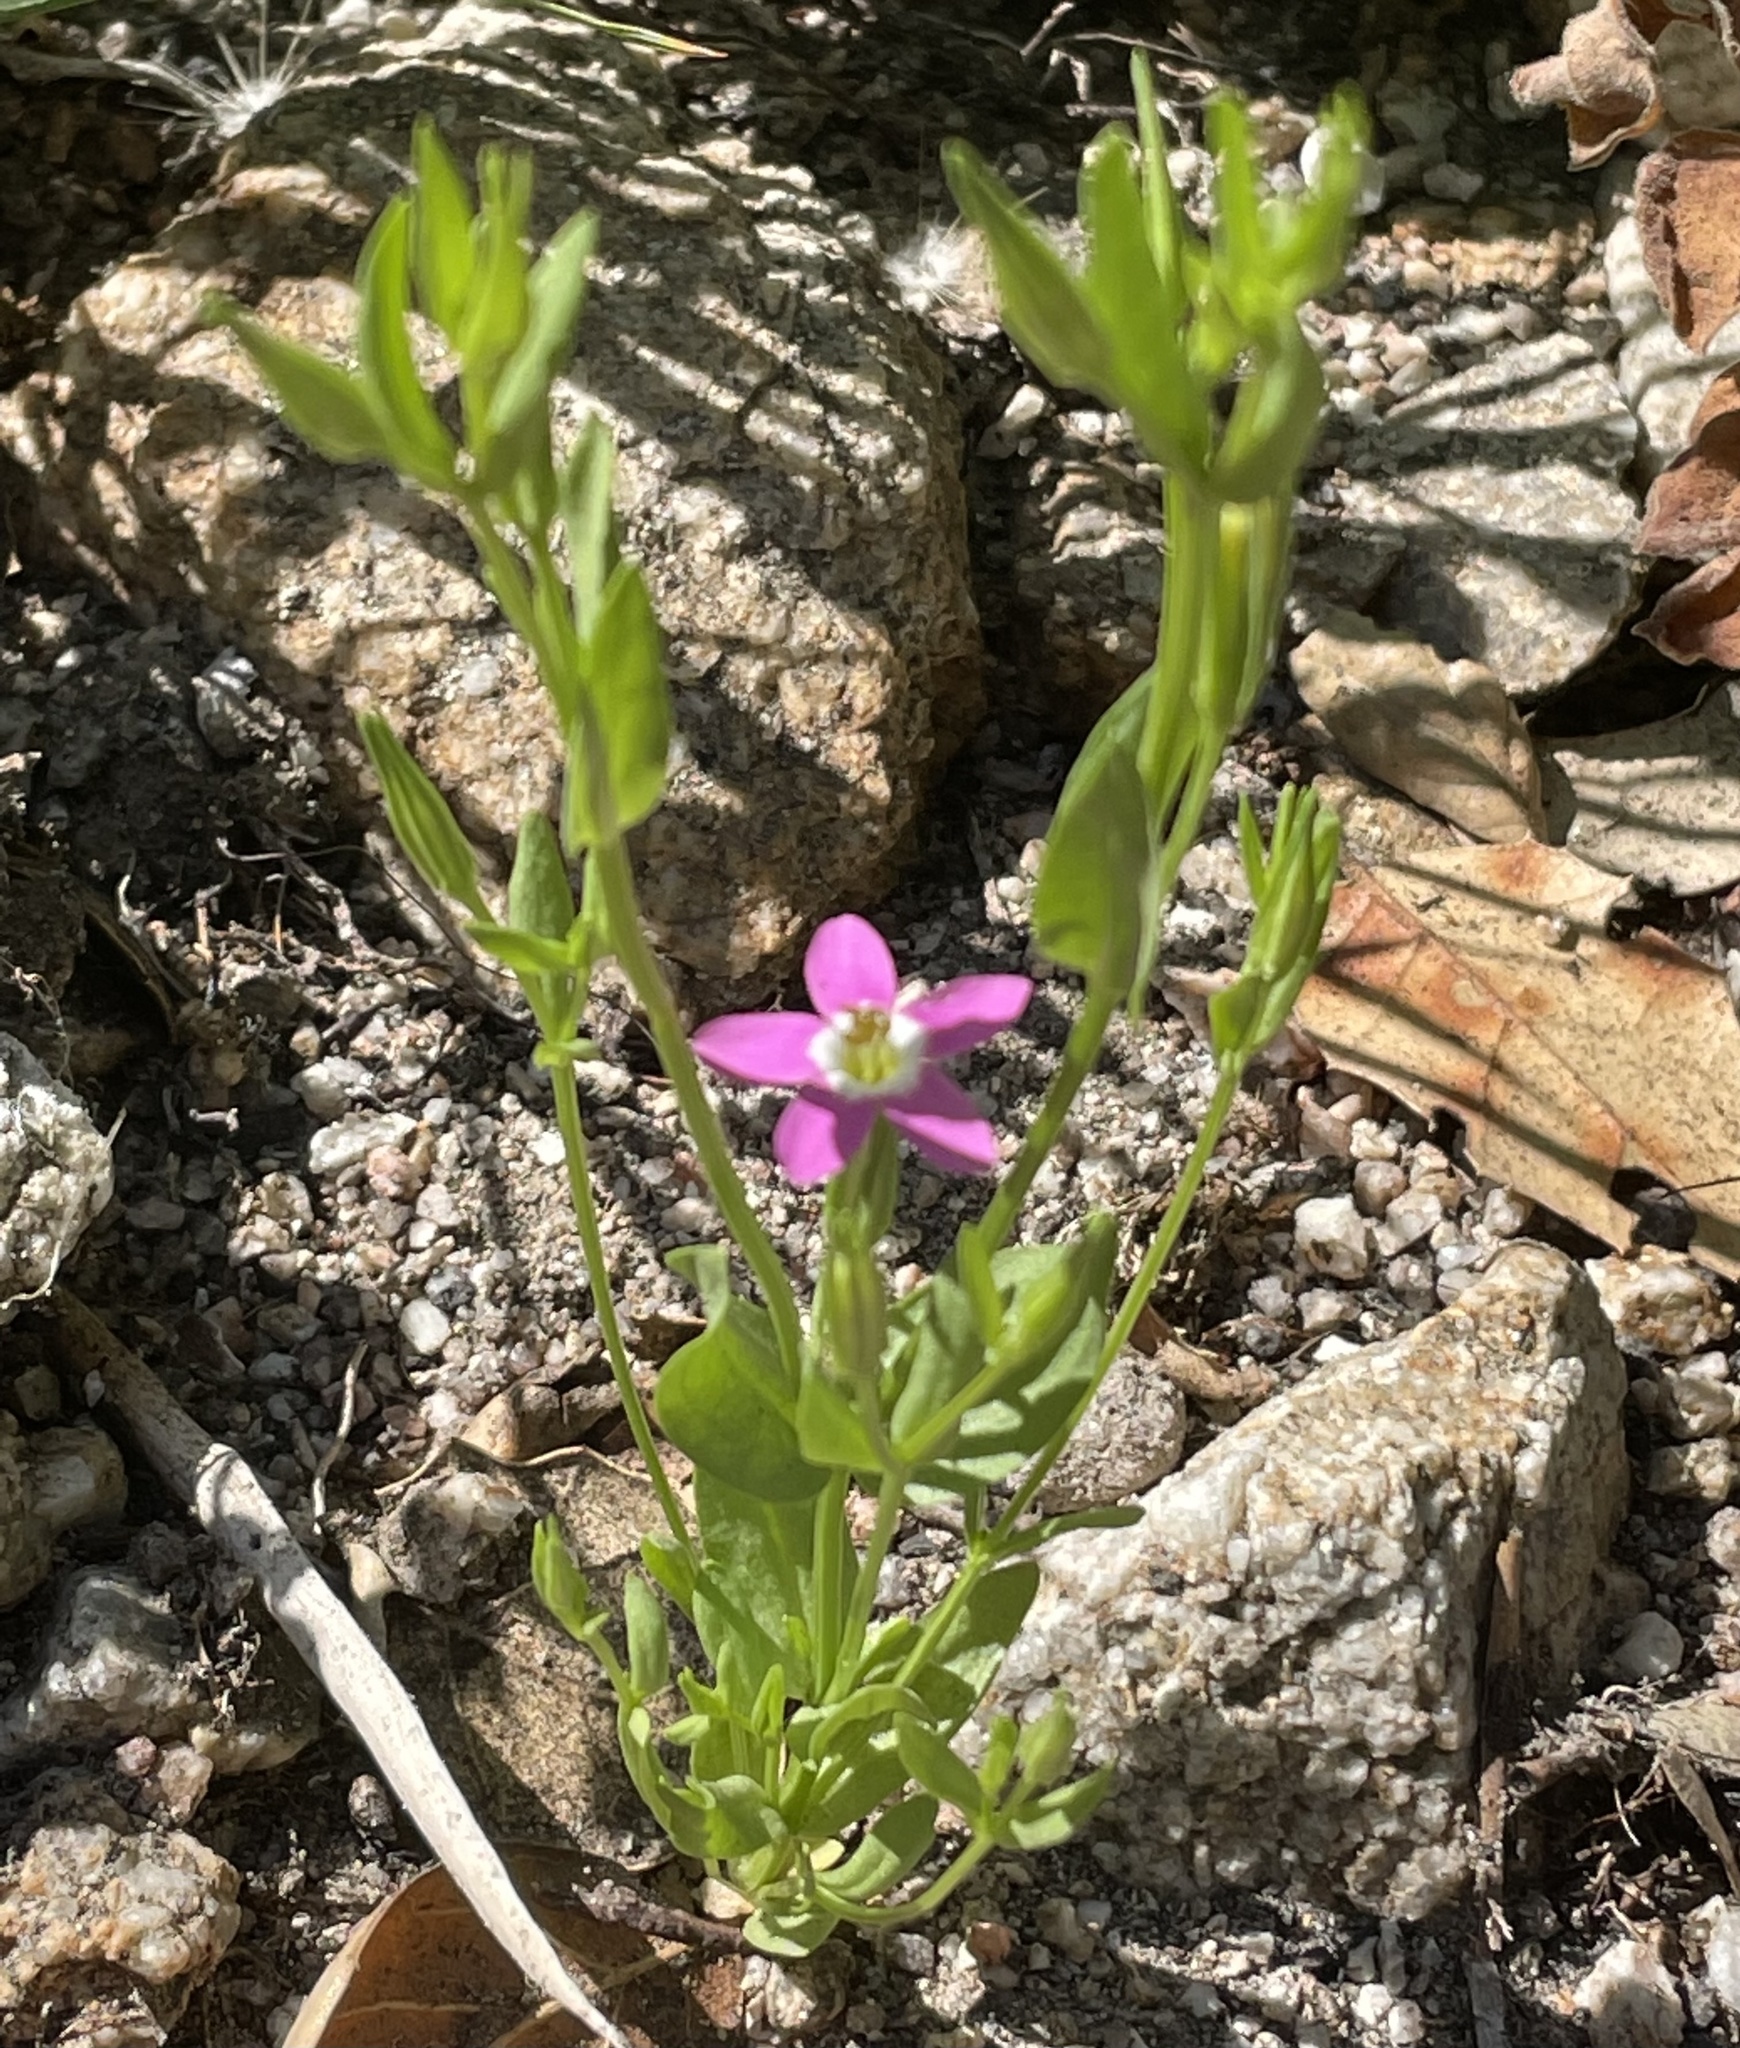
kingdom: Plantae
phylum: Tracheophyta
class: Magnoliopsida
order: Gentianales
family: Gentianaceae
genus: Zeltnera
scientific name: Zeltnera davyi
